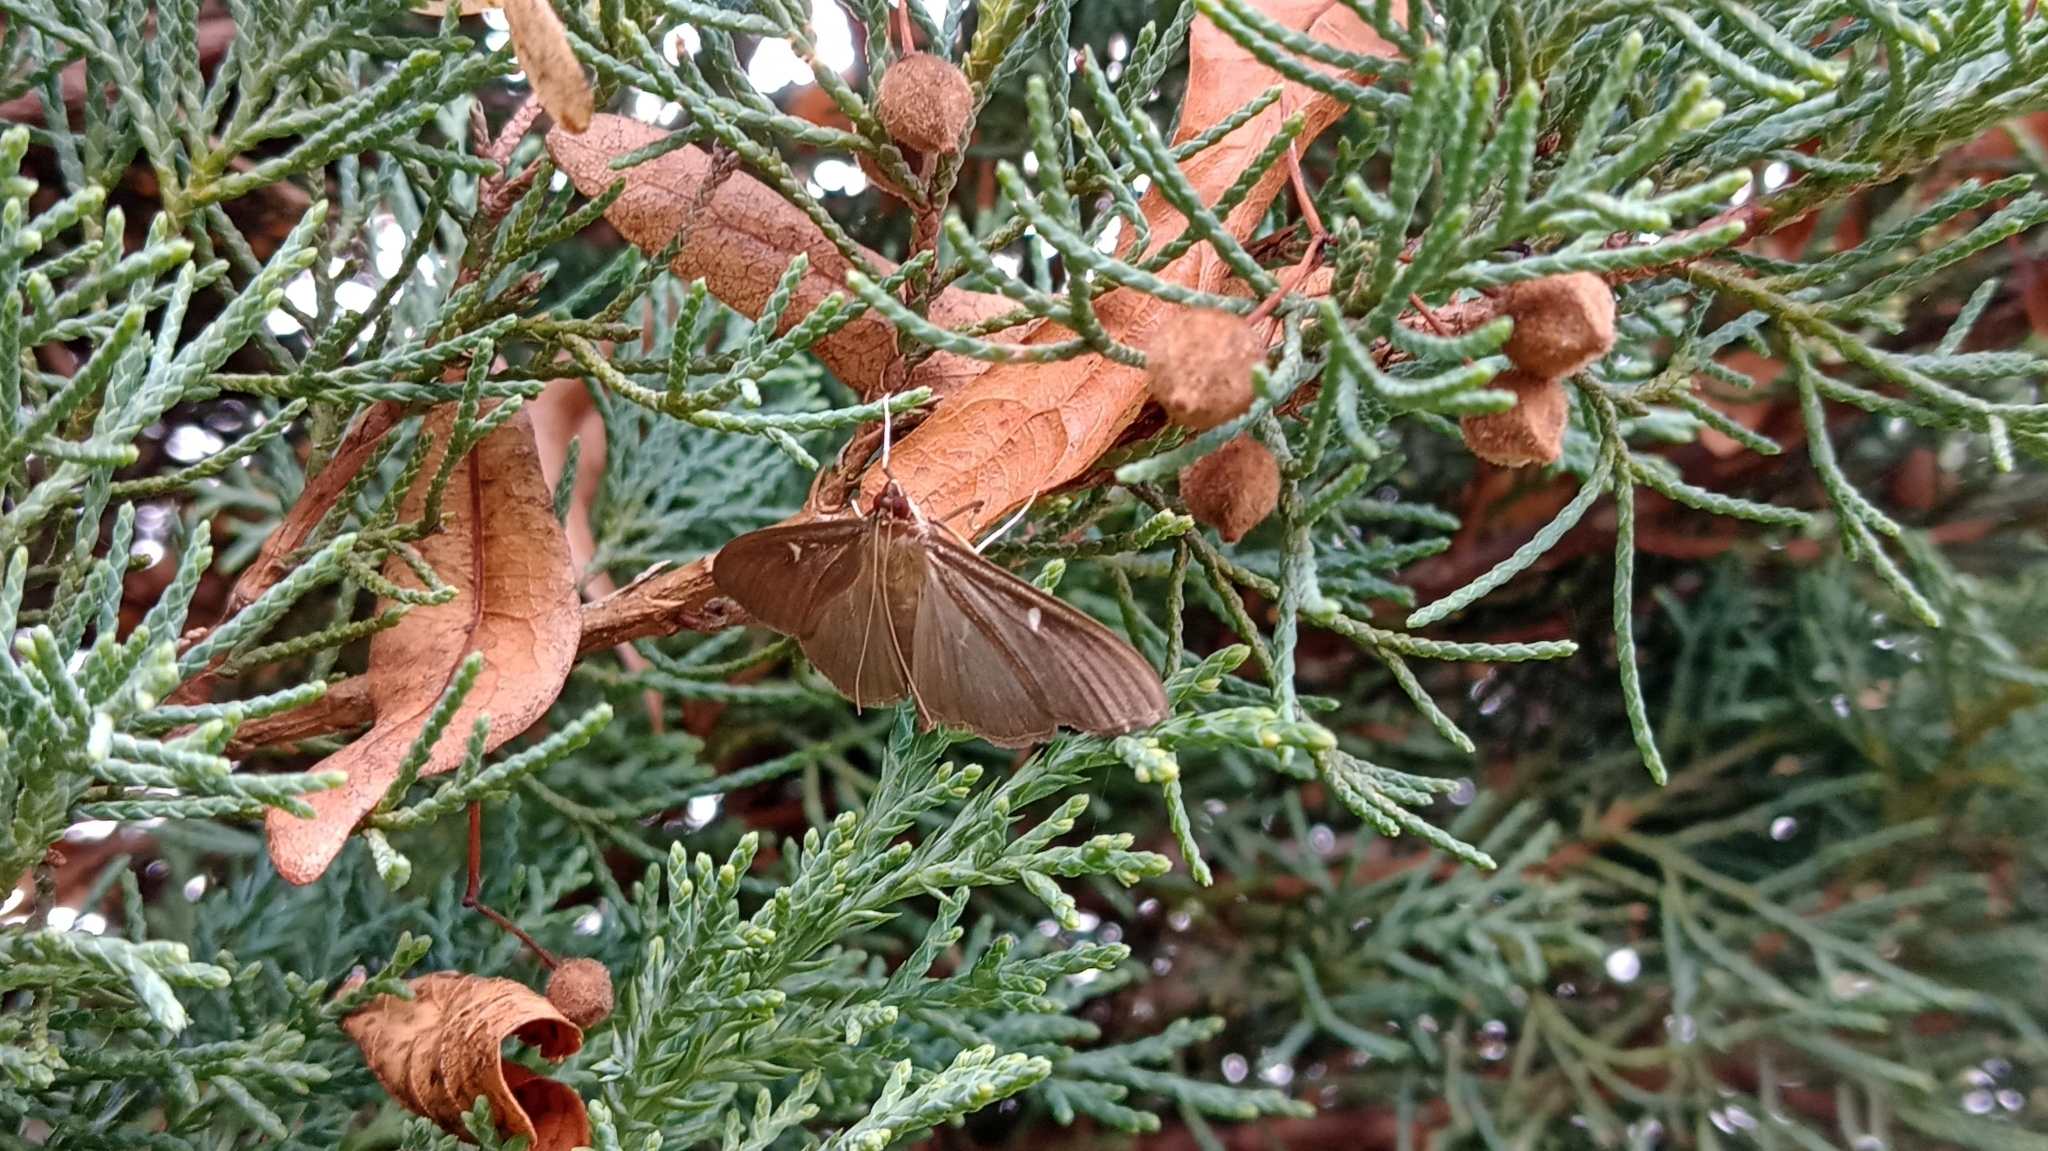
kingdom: Animalia
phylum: Arthropoda
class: Insecta
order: Lepidoptera
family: Crambidae
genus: Cydalima
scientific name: Cydalima perspectalis
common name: Box tree moth
